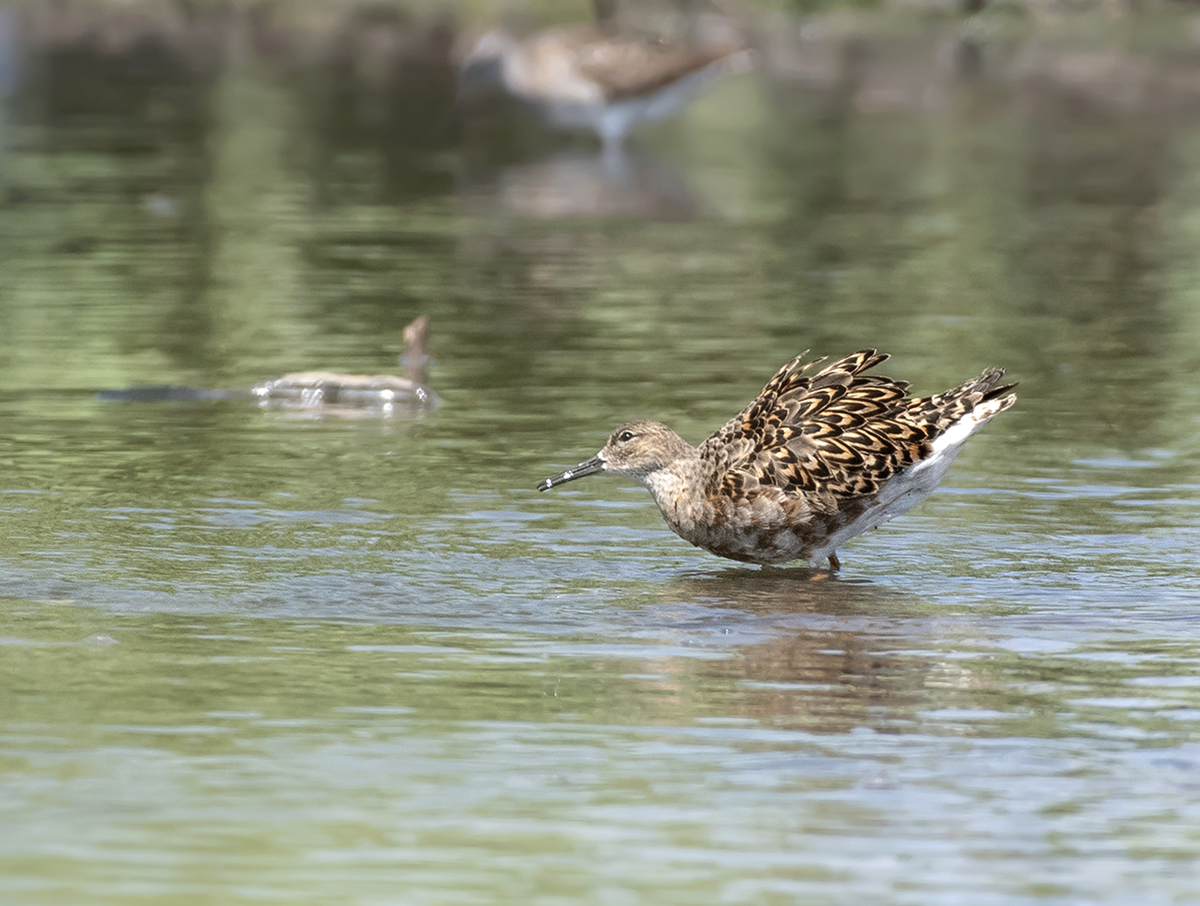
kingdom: Animalia
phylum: Chordata
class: Aves
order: Charadriiformes
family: Scolopacidae
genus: Calidris
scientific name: Calidris pugnax
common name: Ruff
